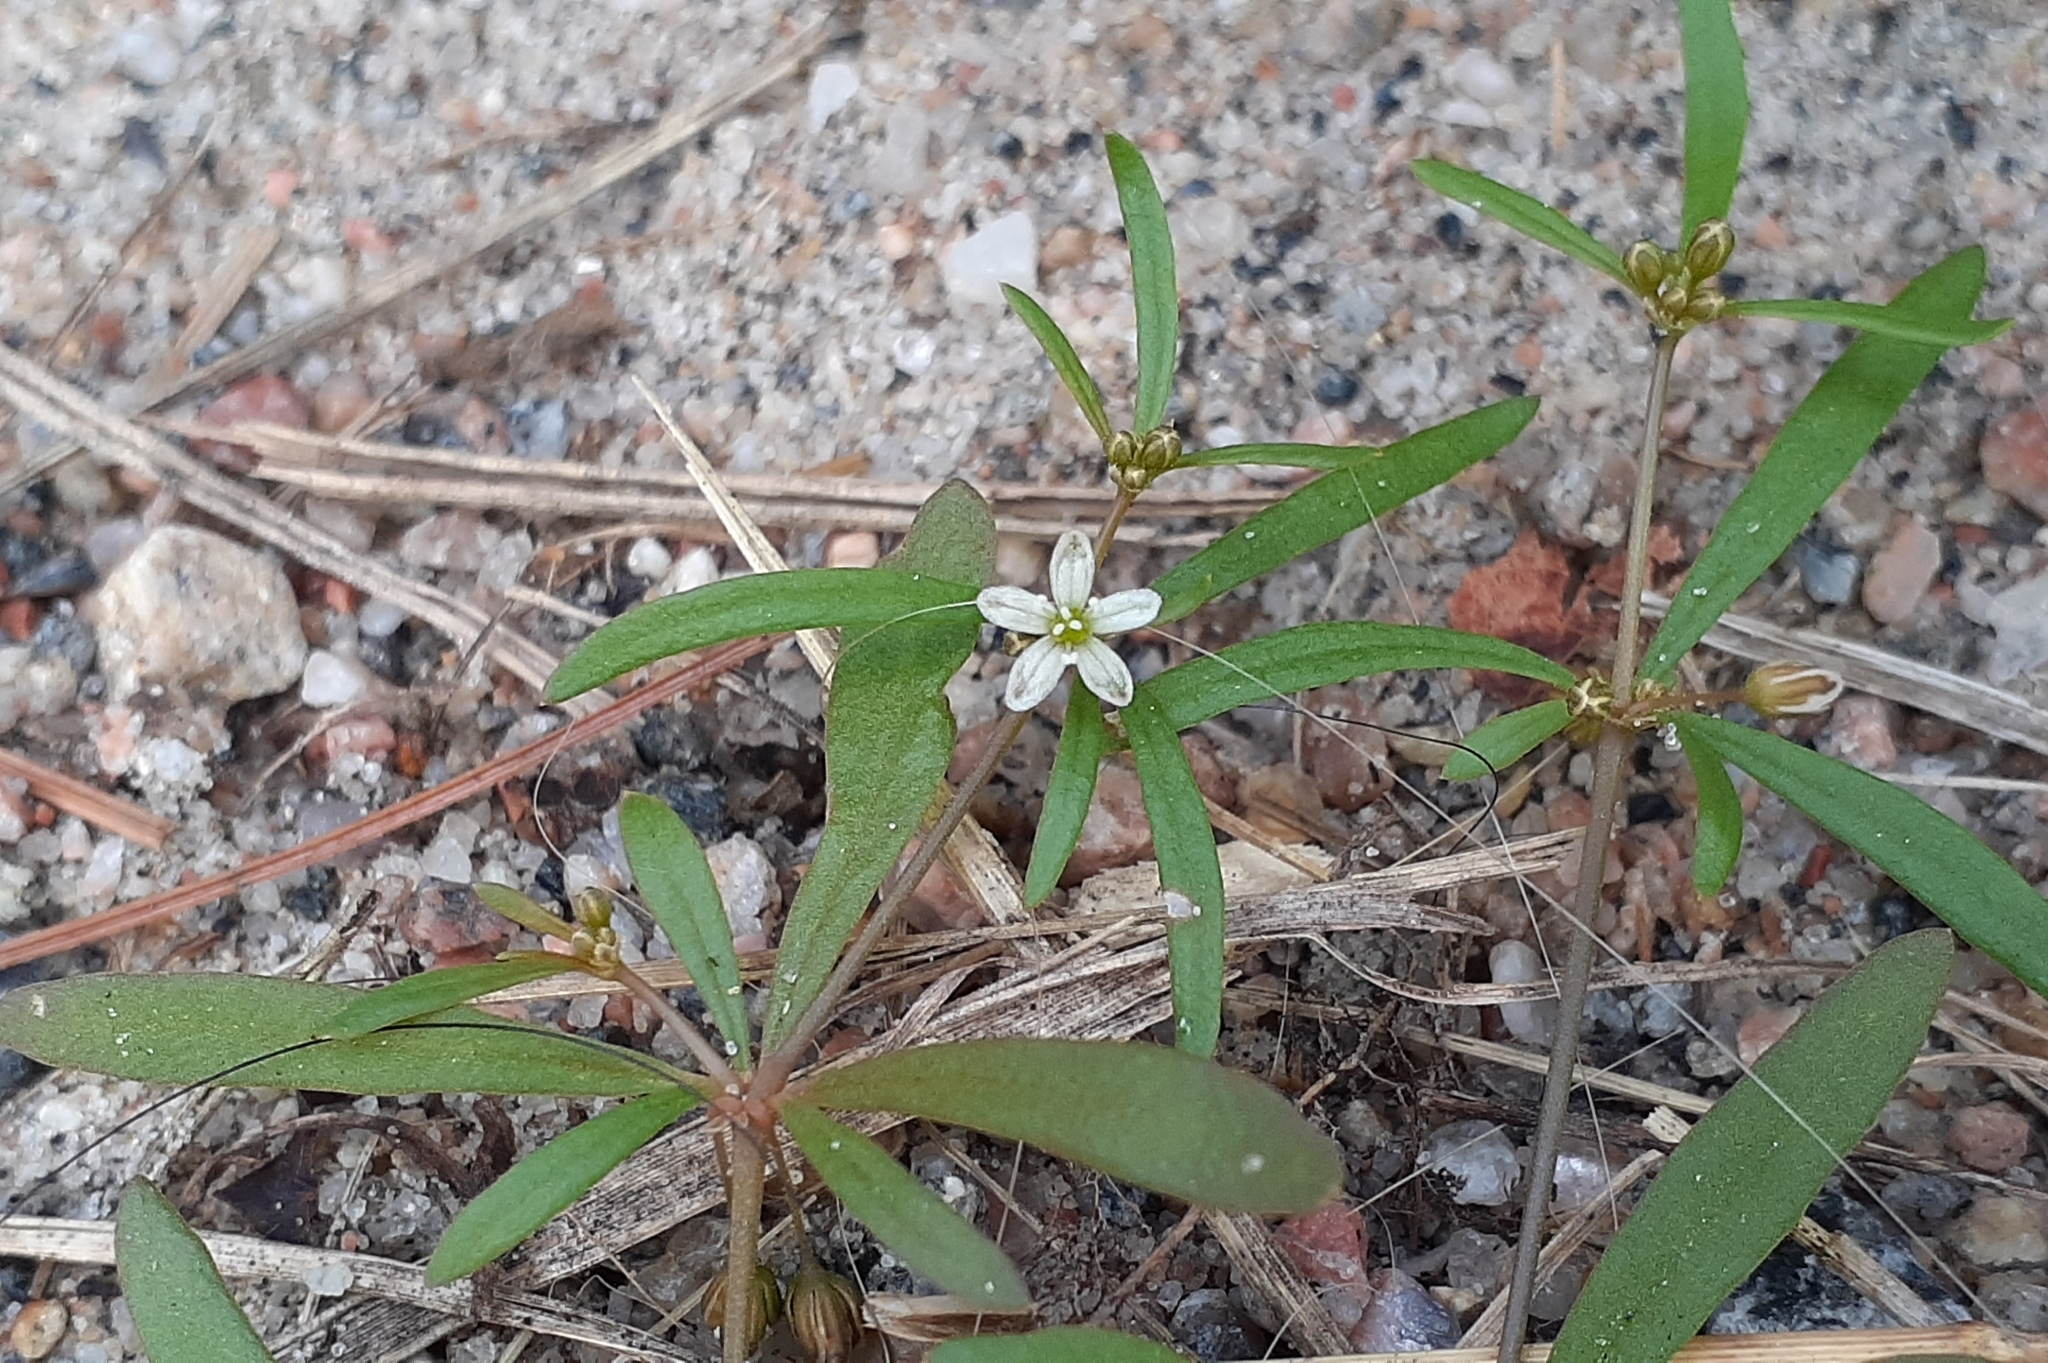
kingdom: Plantae
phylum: Tracheophyta
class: Magnoliopsida
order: Caryophyllales
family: Molluginaceae
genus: Mollugo
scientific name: Mollugo verticillata
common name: Green carpetweed
